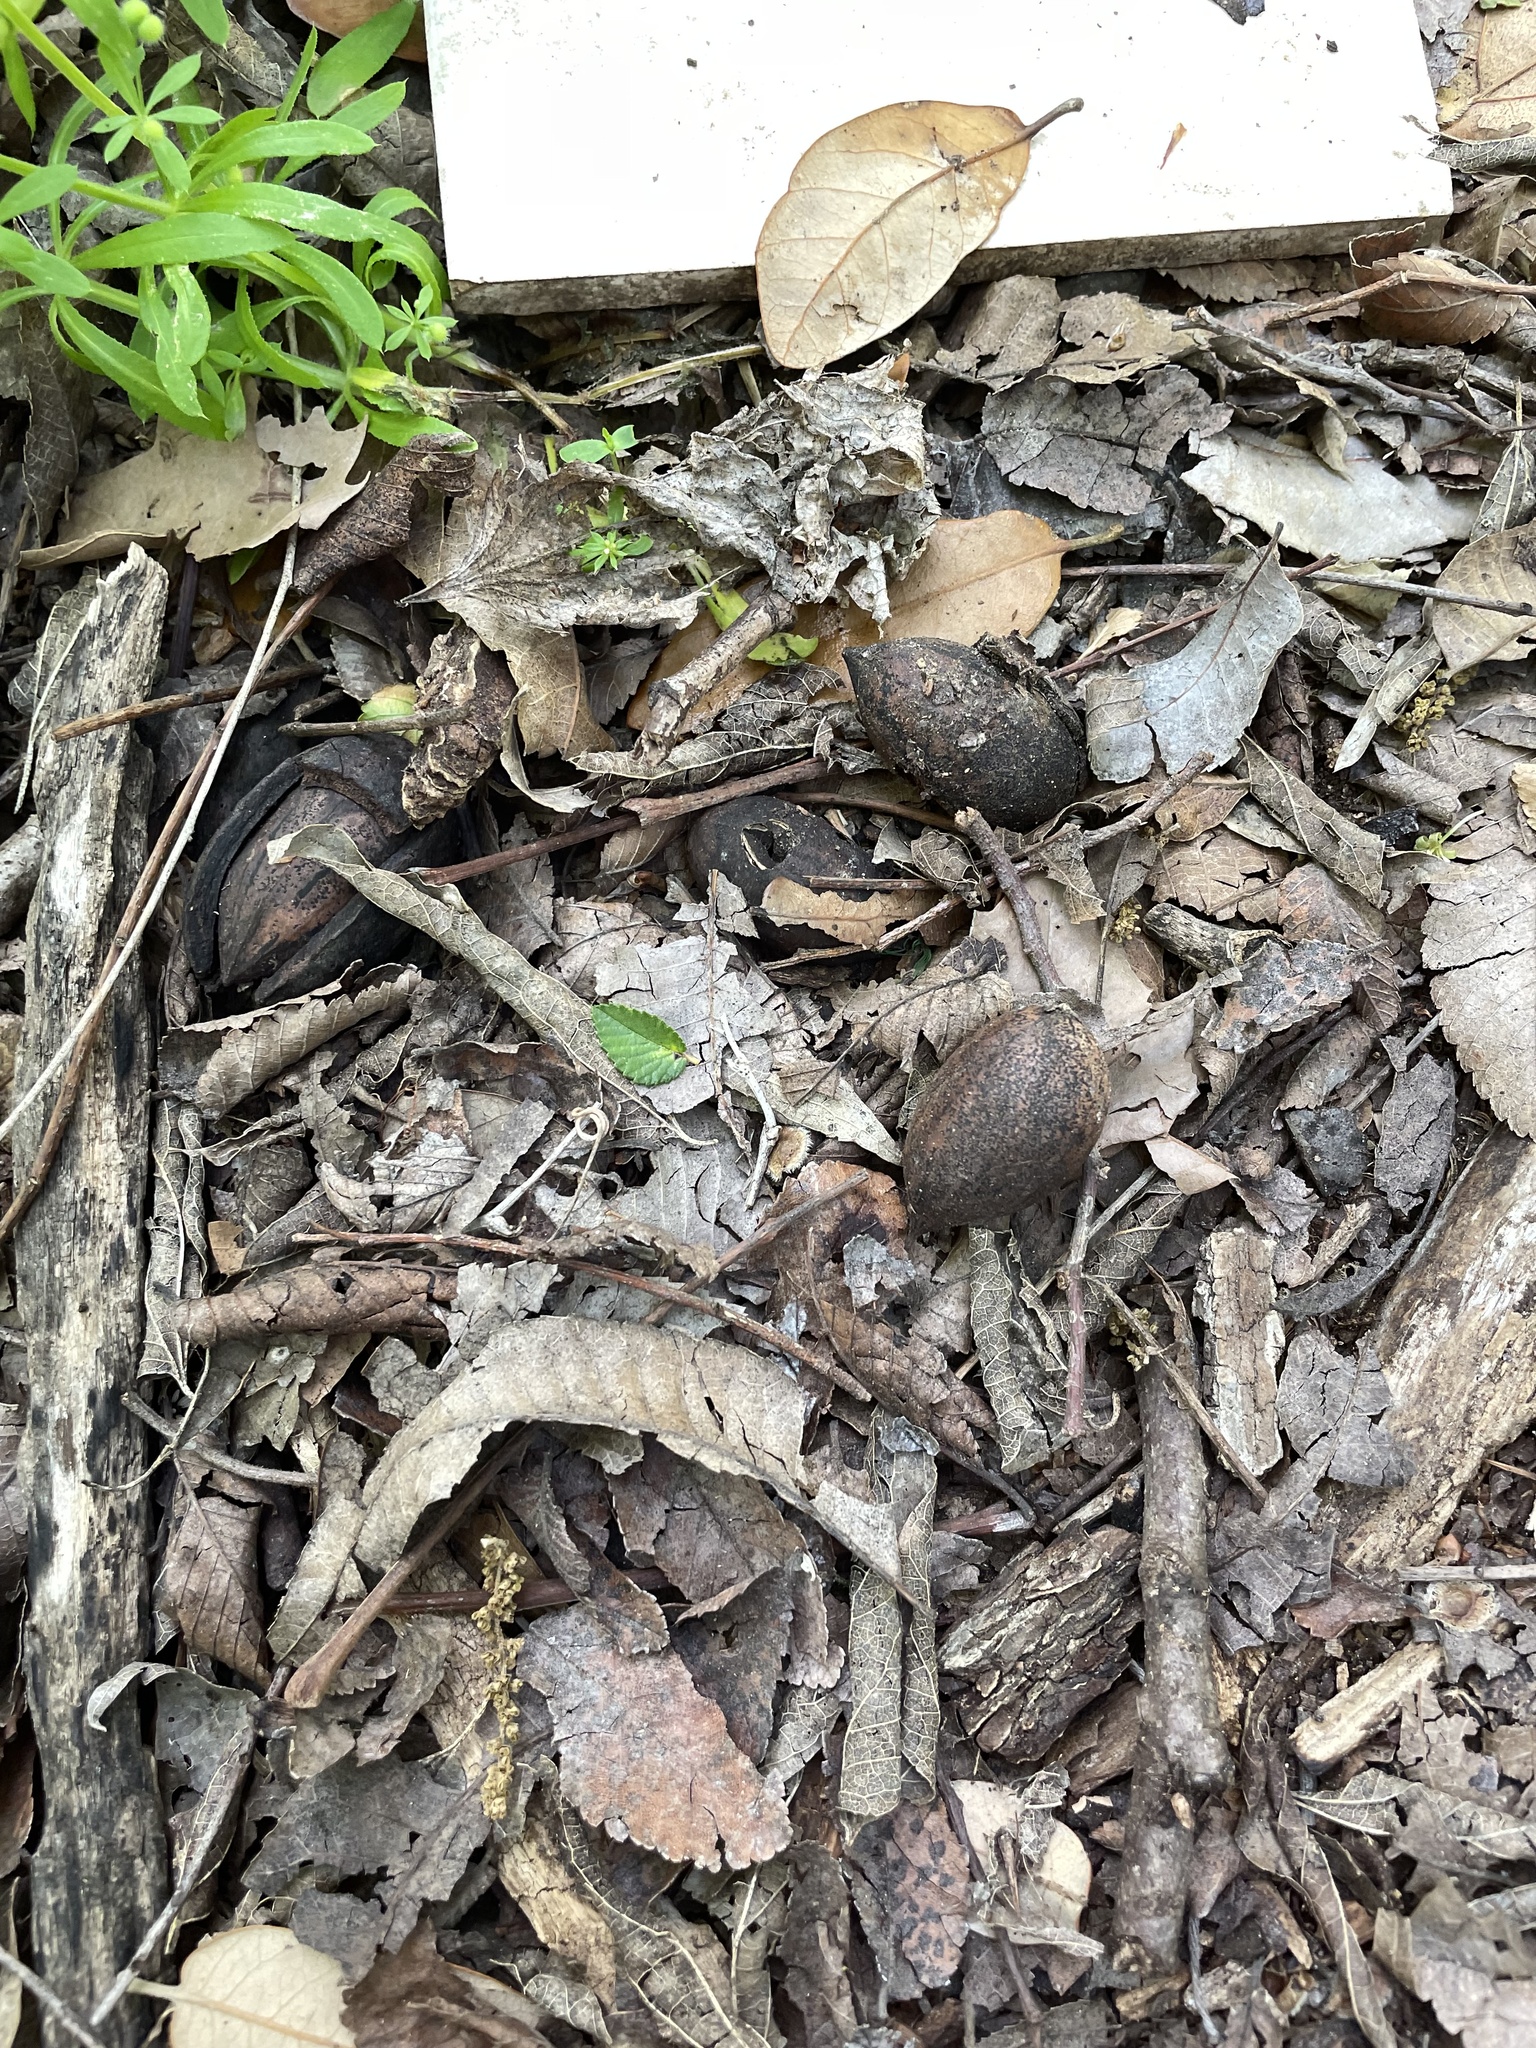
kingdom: Plantae
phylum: Tracheophyta
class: Magnoliopsida
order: Fagales
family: Juglandaceae
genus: Carya
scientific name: Carya illinoinensis
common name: Pecan
